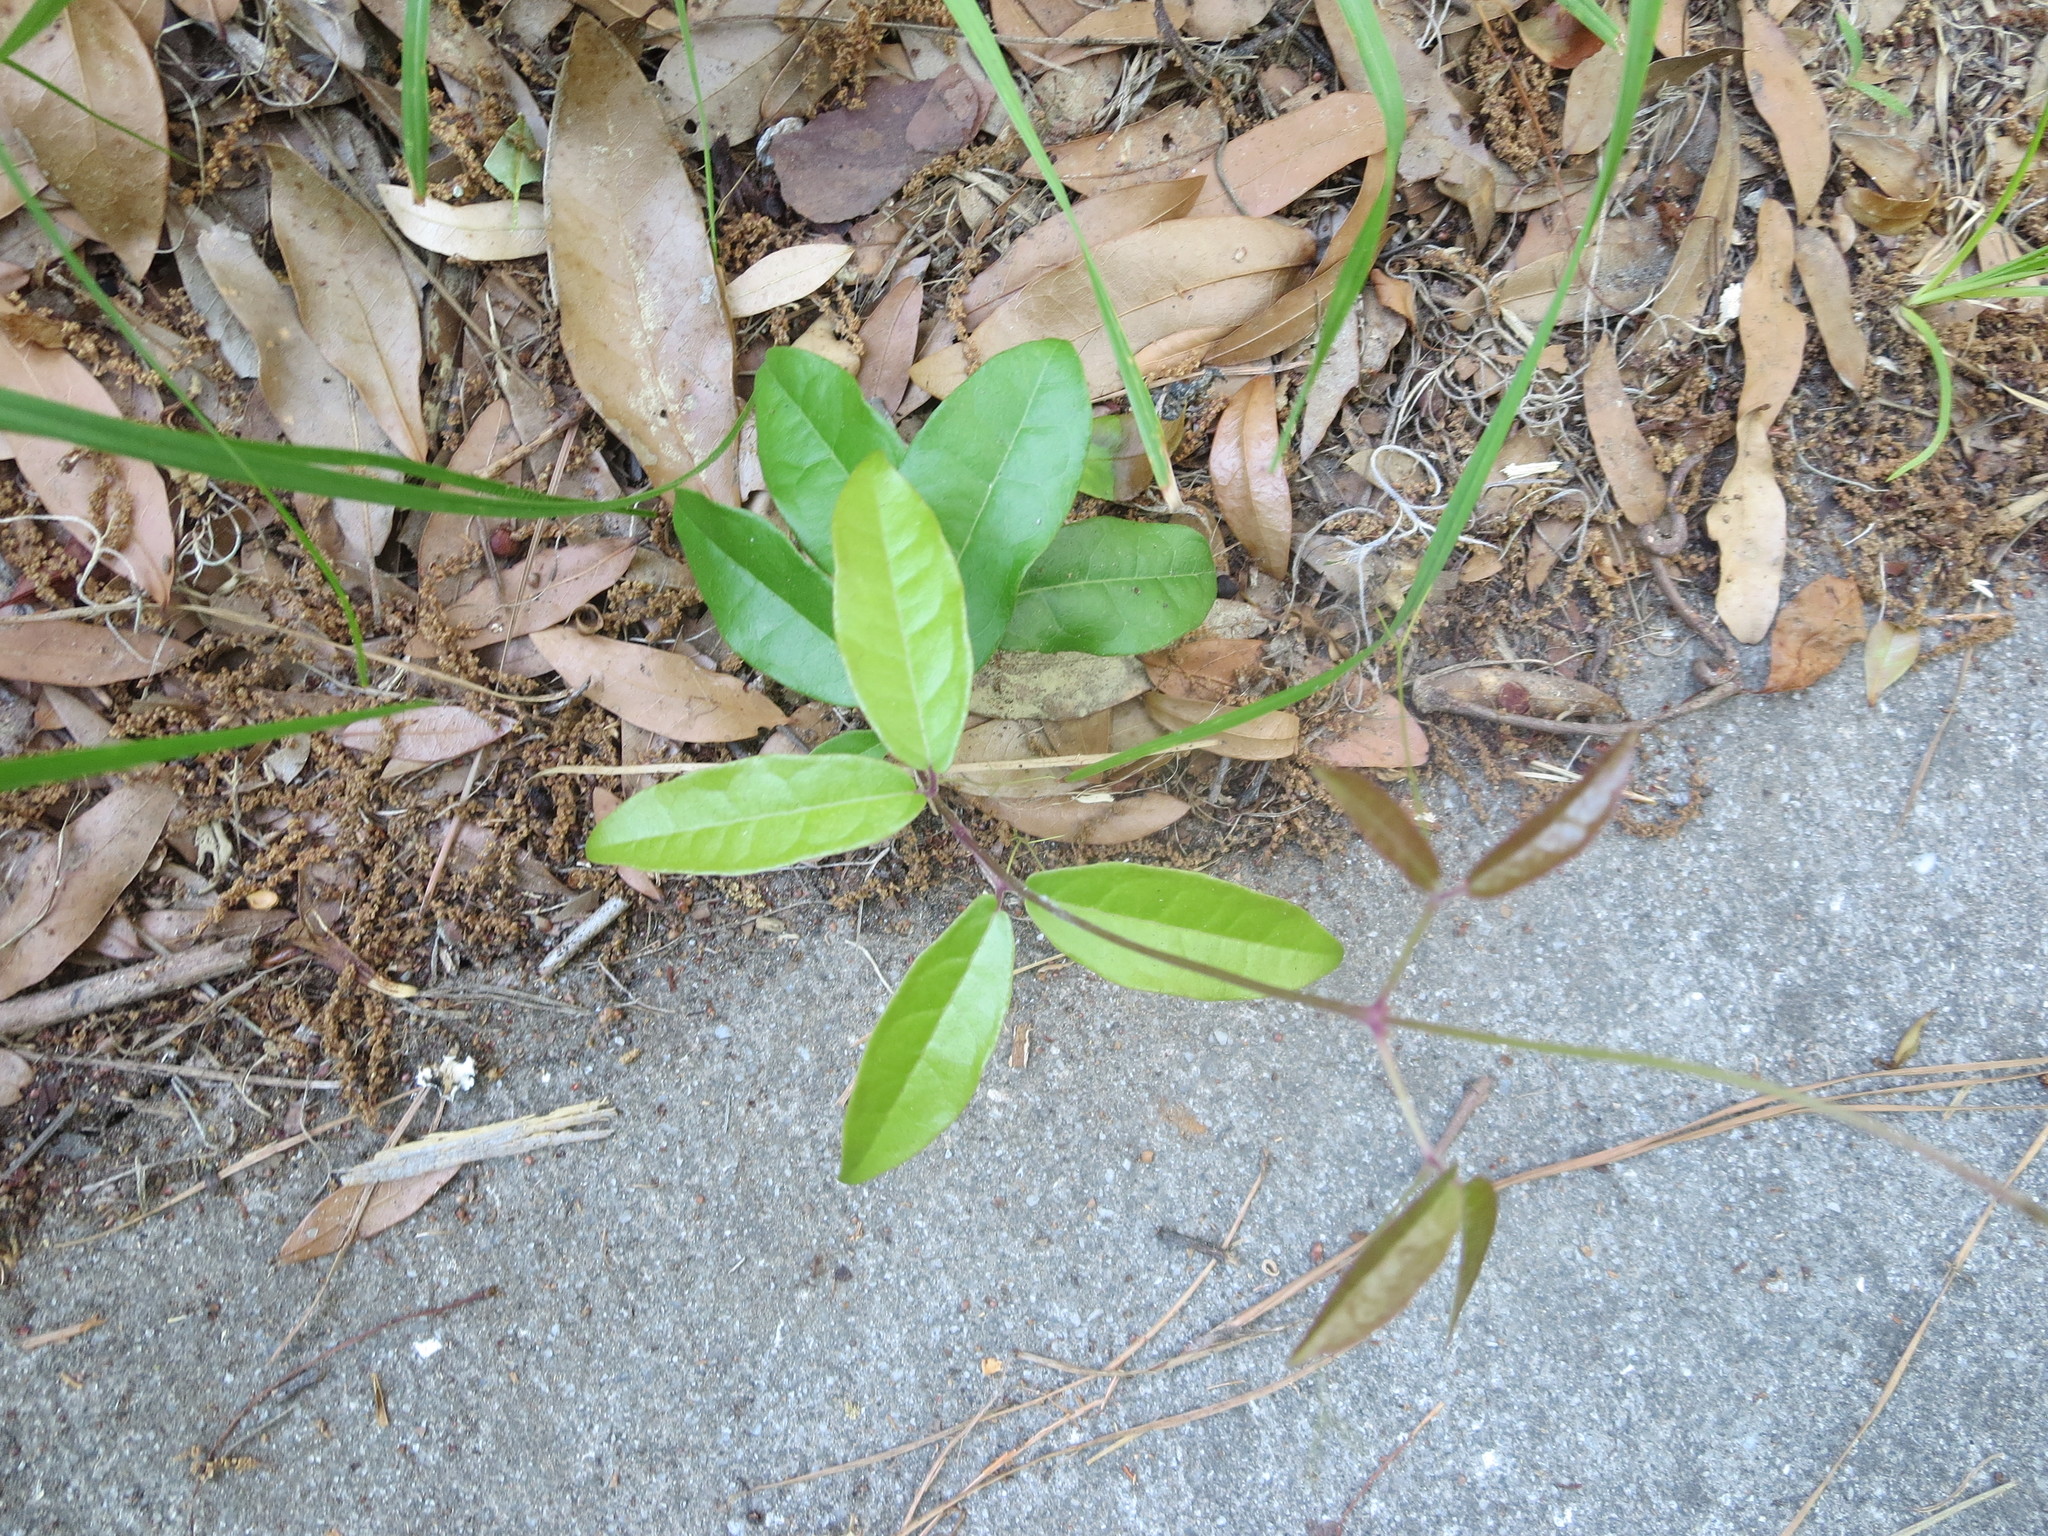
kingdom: Plantae
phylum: Tracheophyta
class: Magnoliopsida
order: Lamiales
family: Bignoniaceae
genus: Bignonia
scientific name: Bignonia capreolata
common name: Crossvine
